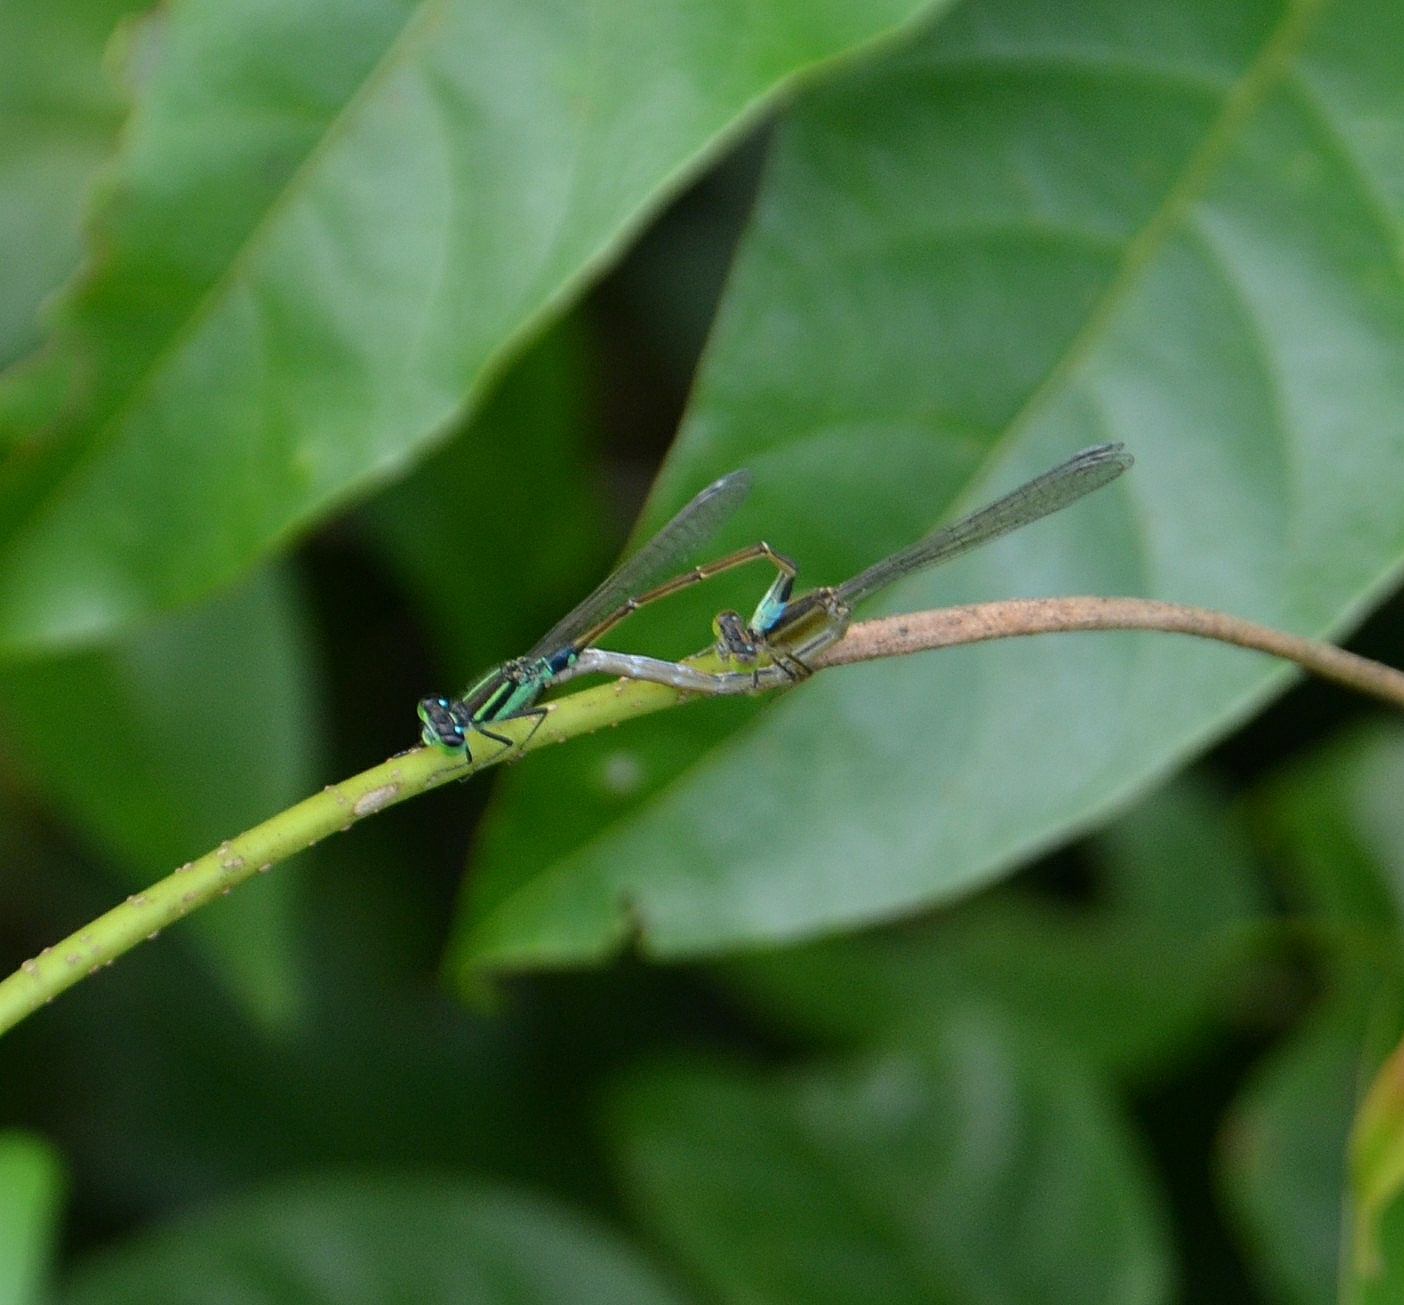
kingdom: Animalia
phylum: Arthropoda
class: Insecta
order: Odonata
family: Coenagrionidae
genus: Ischnura
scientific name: Ischnura senegalensis
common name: Tropical bluetail
